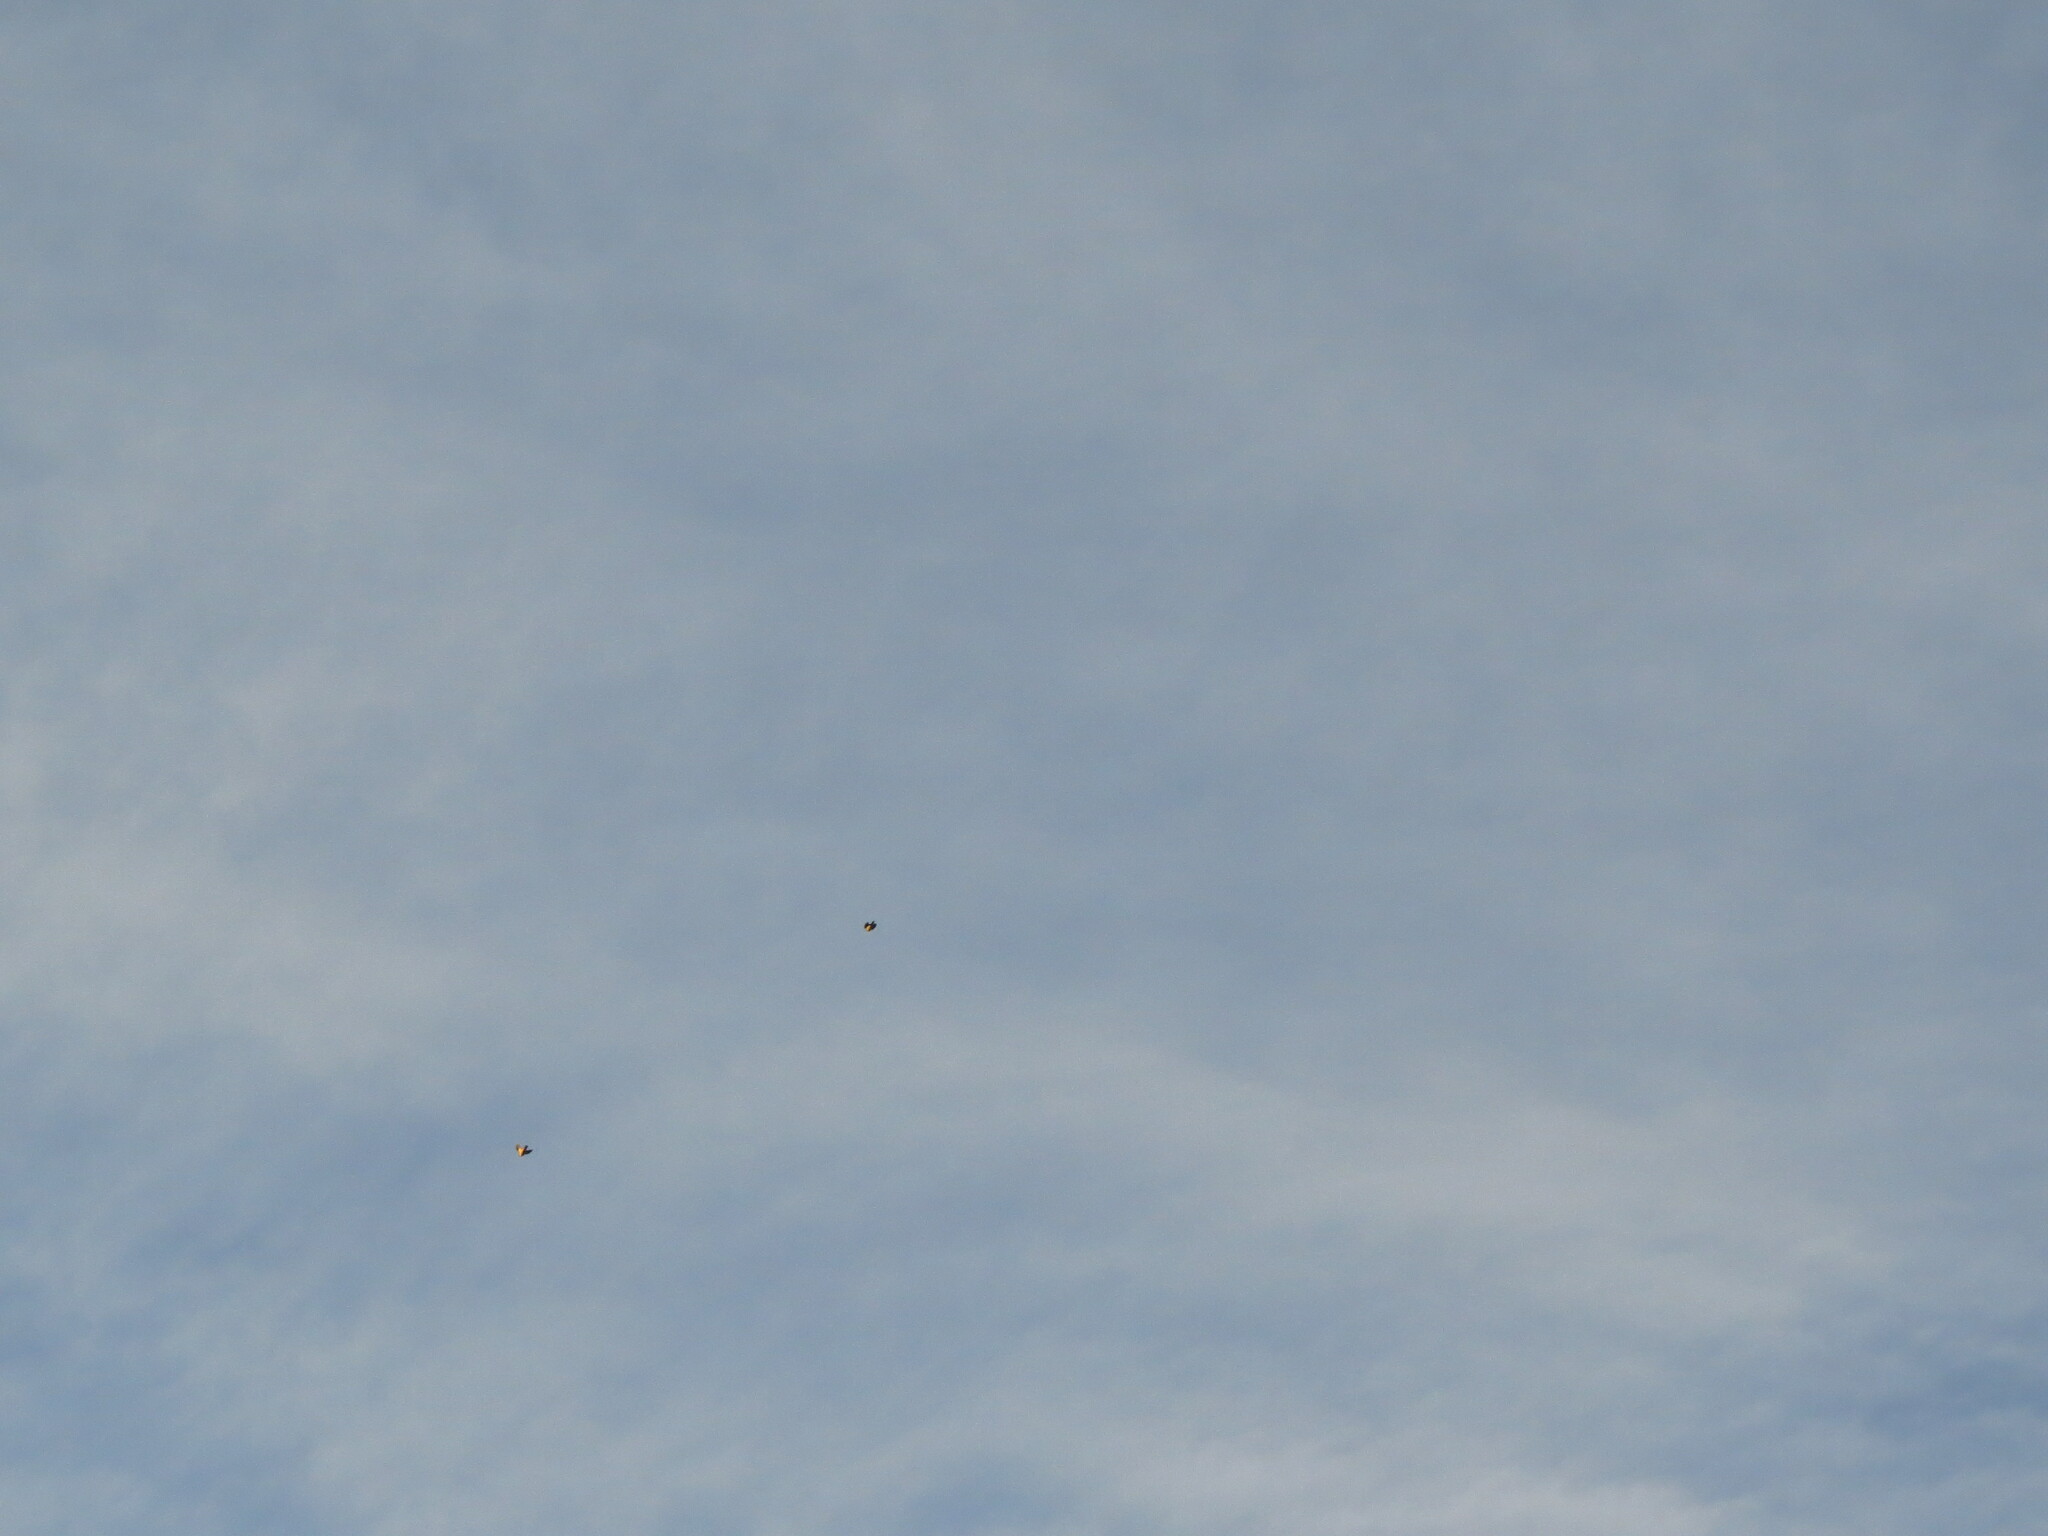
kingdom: Animalia
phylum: Chordata
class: Aves
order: Passeriformes
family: Turdidae
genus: Turdus
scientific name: Turdus pilaris
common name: Fieldfare
